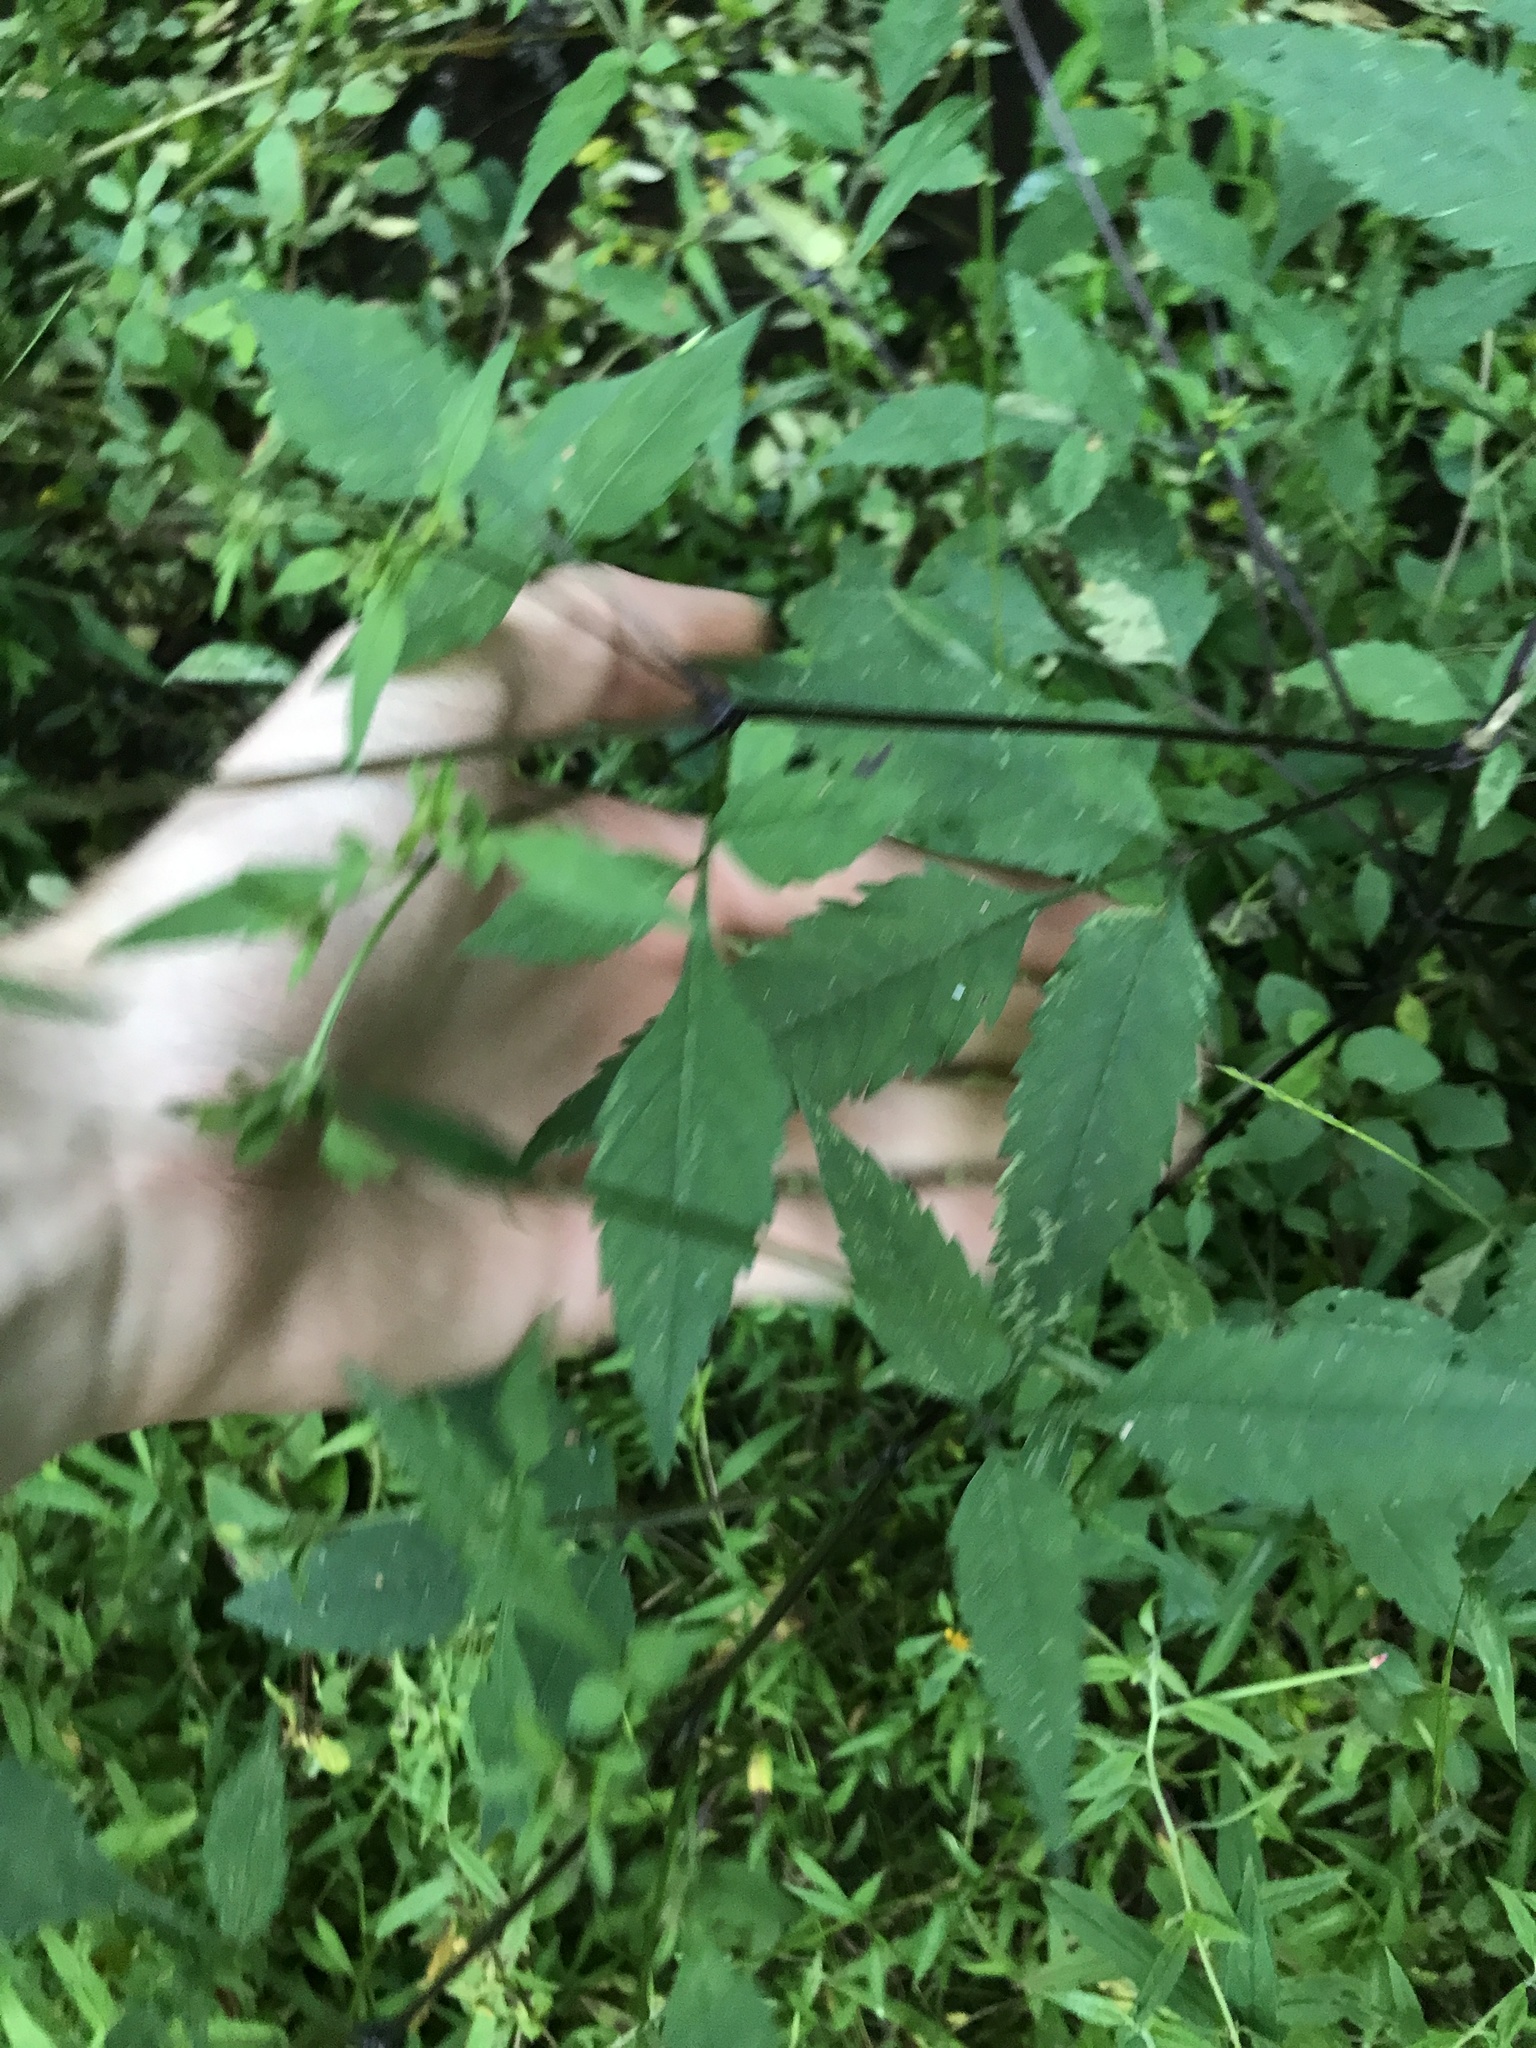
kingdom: Plantae
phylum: Tracheophyta
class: Magnoliopsida
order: Asterales
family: Asteraceae
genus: Bidens
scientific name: Bidens frondosa
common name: Beggarticks
